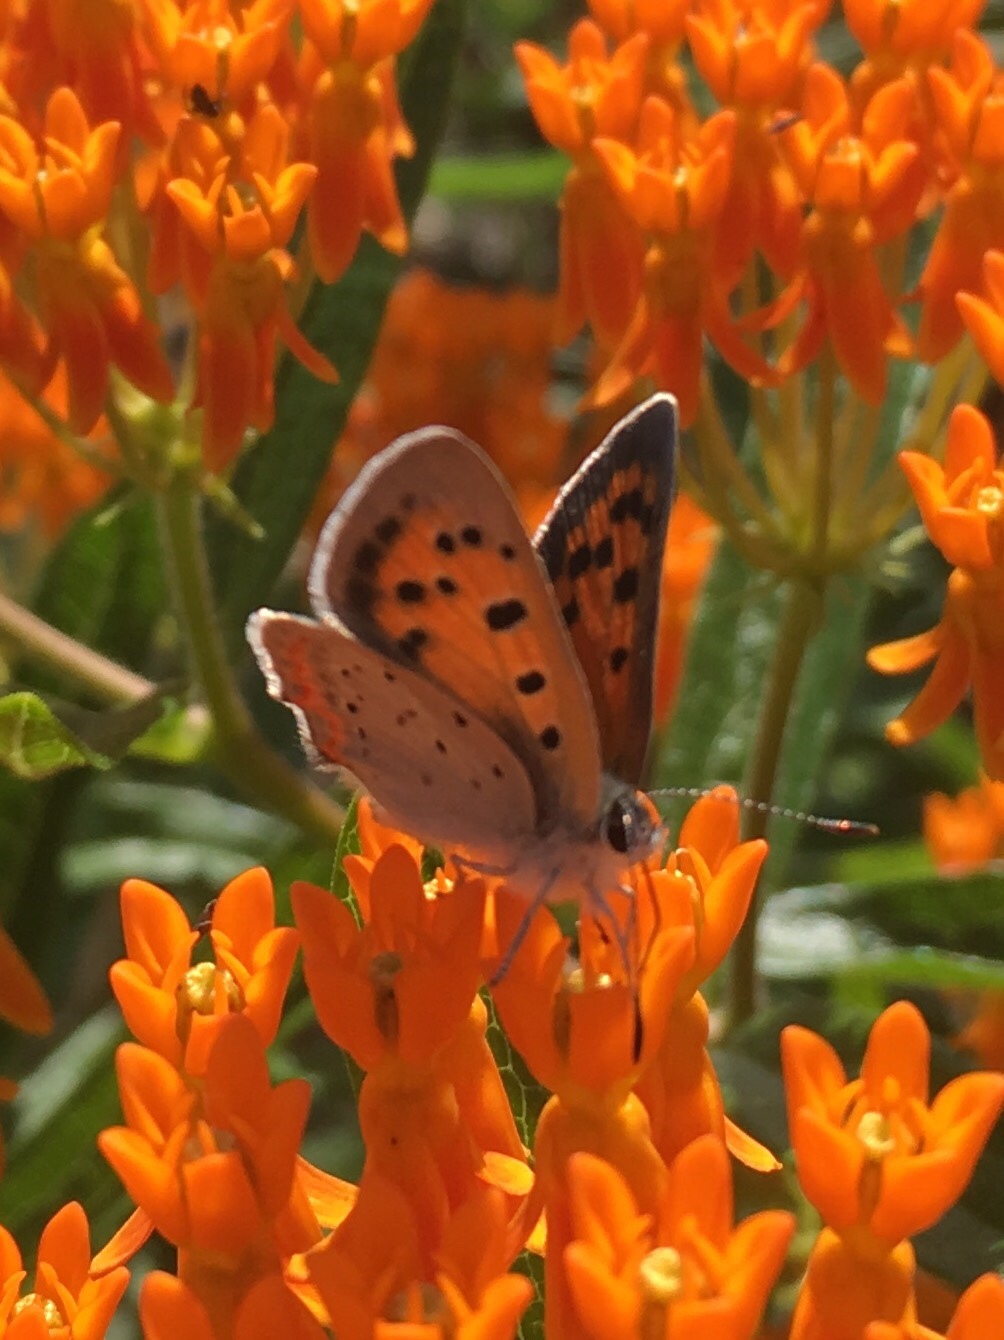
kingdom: Animalia
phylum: Arthropoda
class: Insecta
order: Lepidoptera
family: Lycaenidae
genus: Lycaena
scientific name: Lycaena hypophlaeas
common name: American copper
